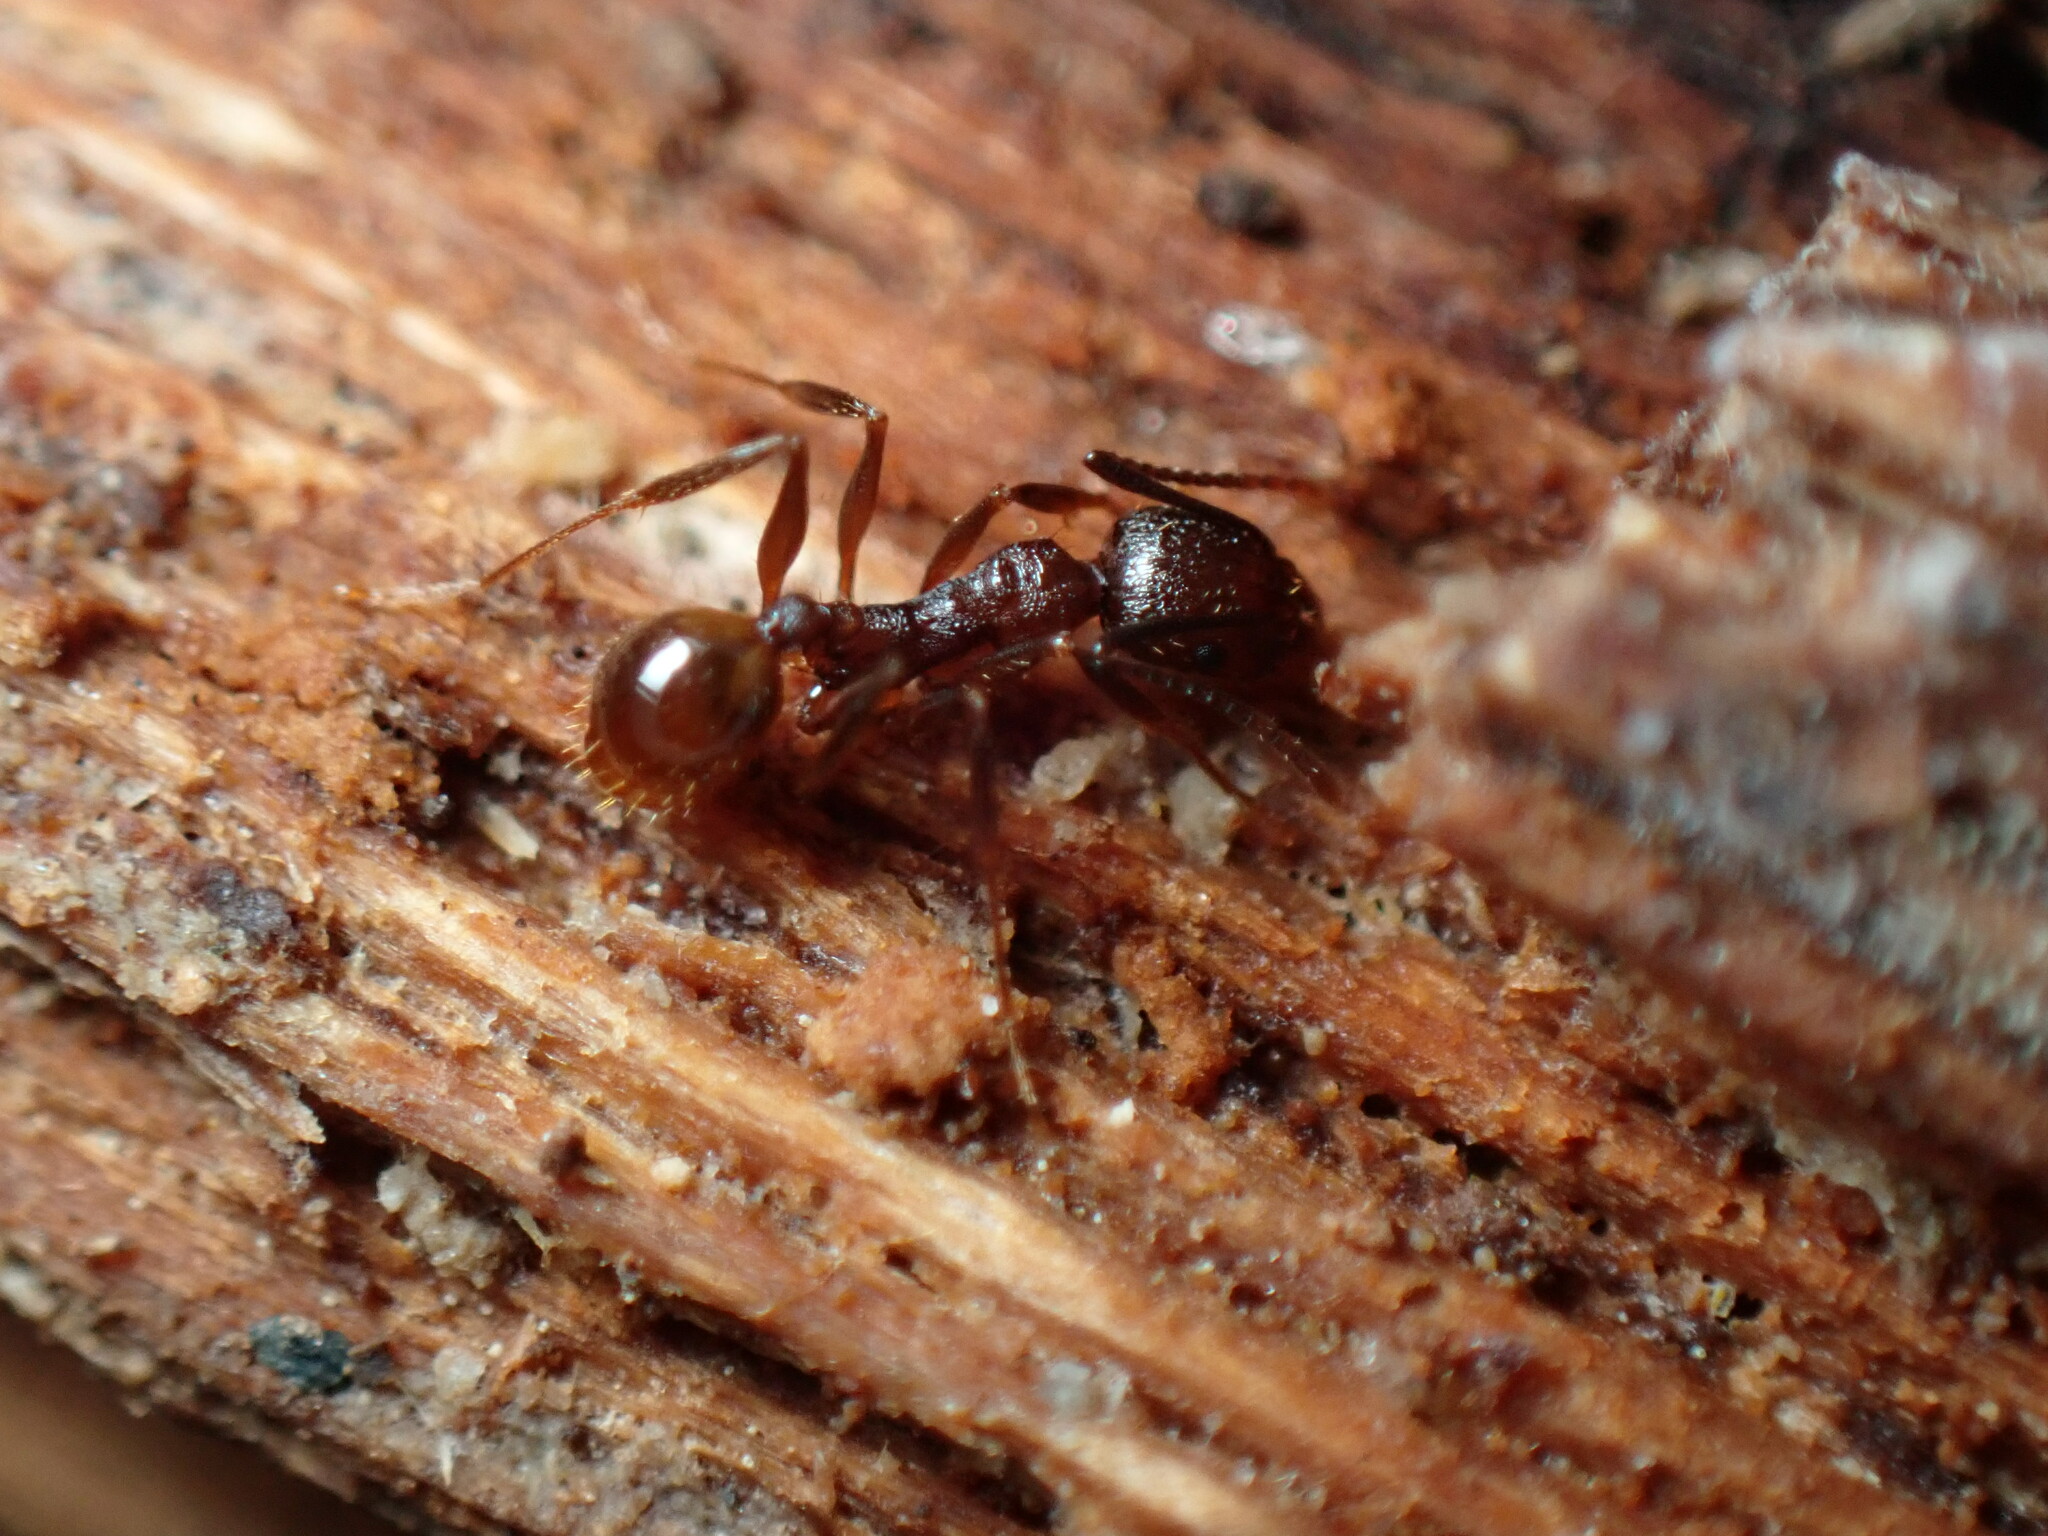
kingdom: Animalia
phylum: Arthropoda
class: Insecta
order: Hymenoptera
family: Formicidae
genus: Aphaenogaster
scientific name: Aphaenogaster fulva
